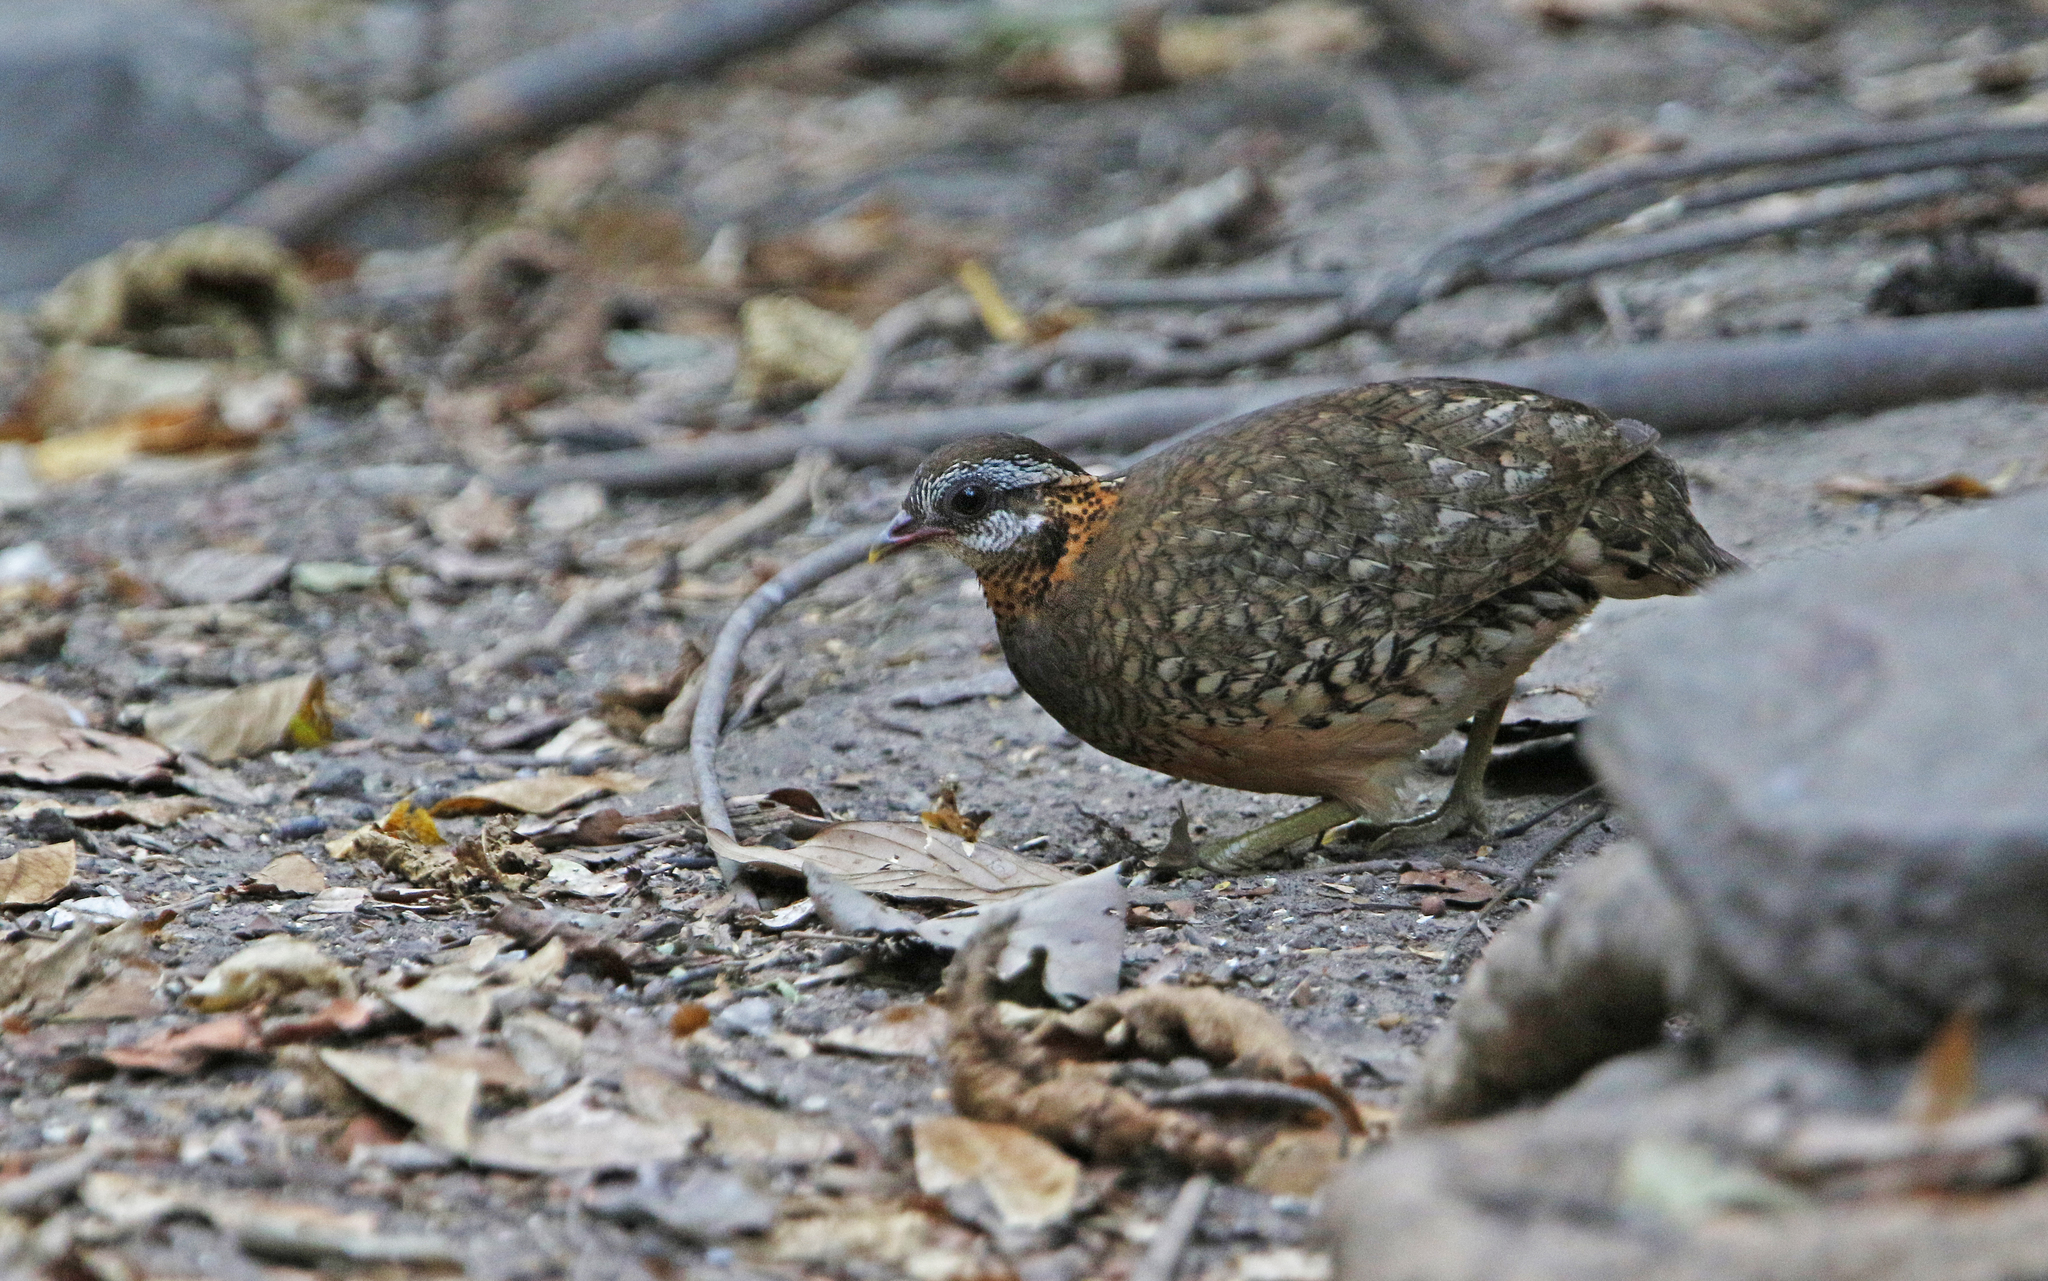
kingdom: Animalia
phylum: Chordata
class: Aves
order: Galliformes
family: Phasianidae
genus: Tropicoperdix
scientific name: Tropicoperdix chloropus
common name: Green-legged partridge
